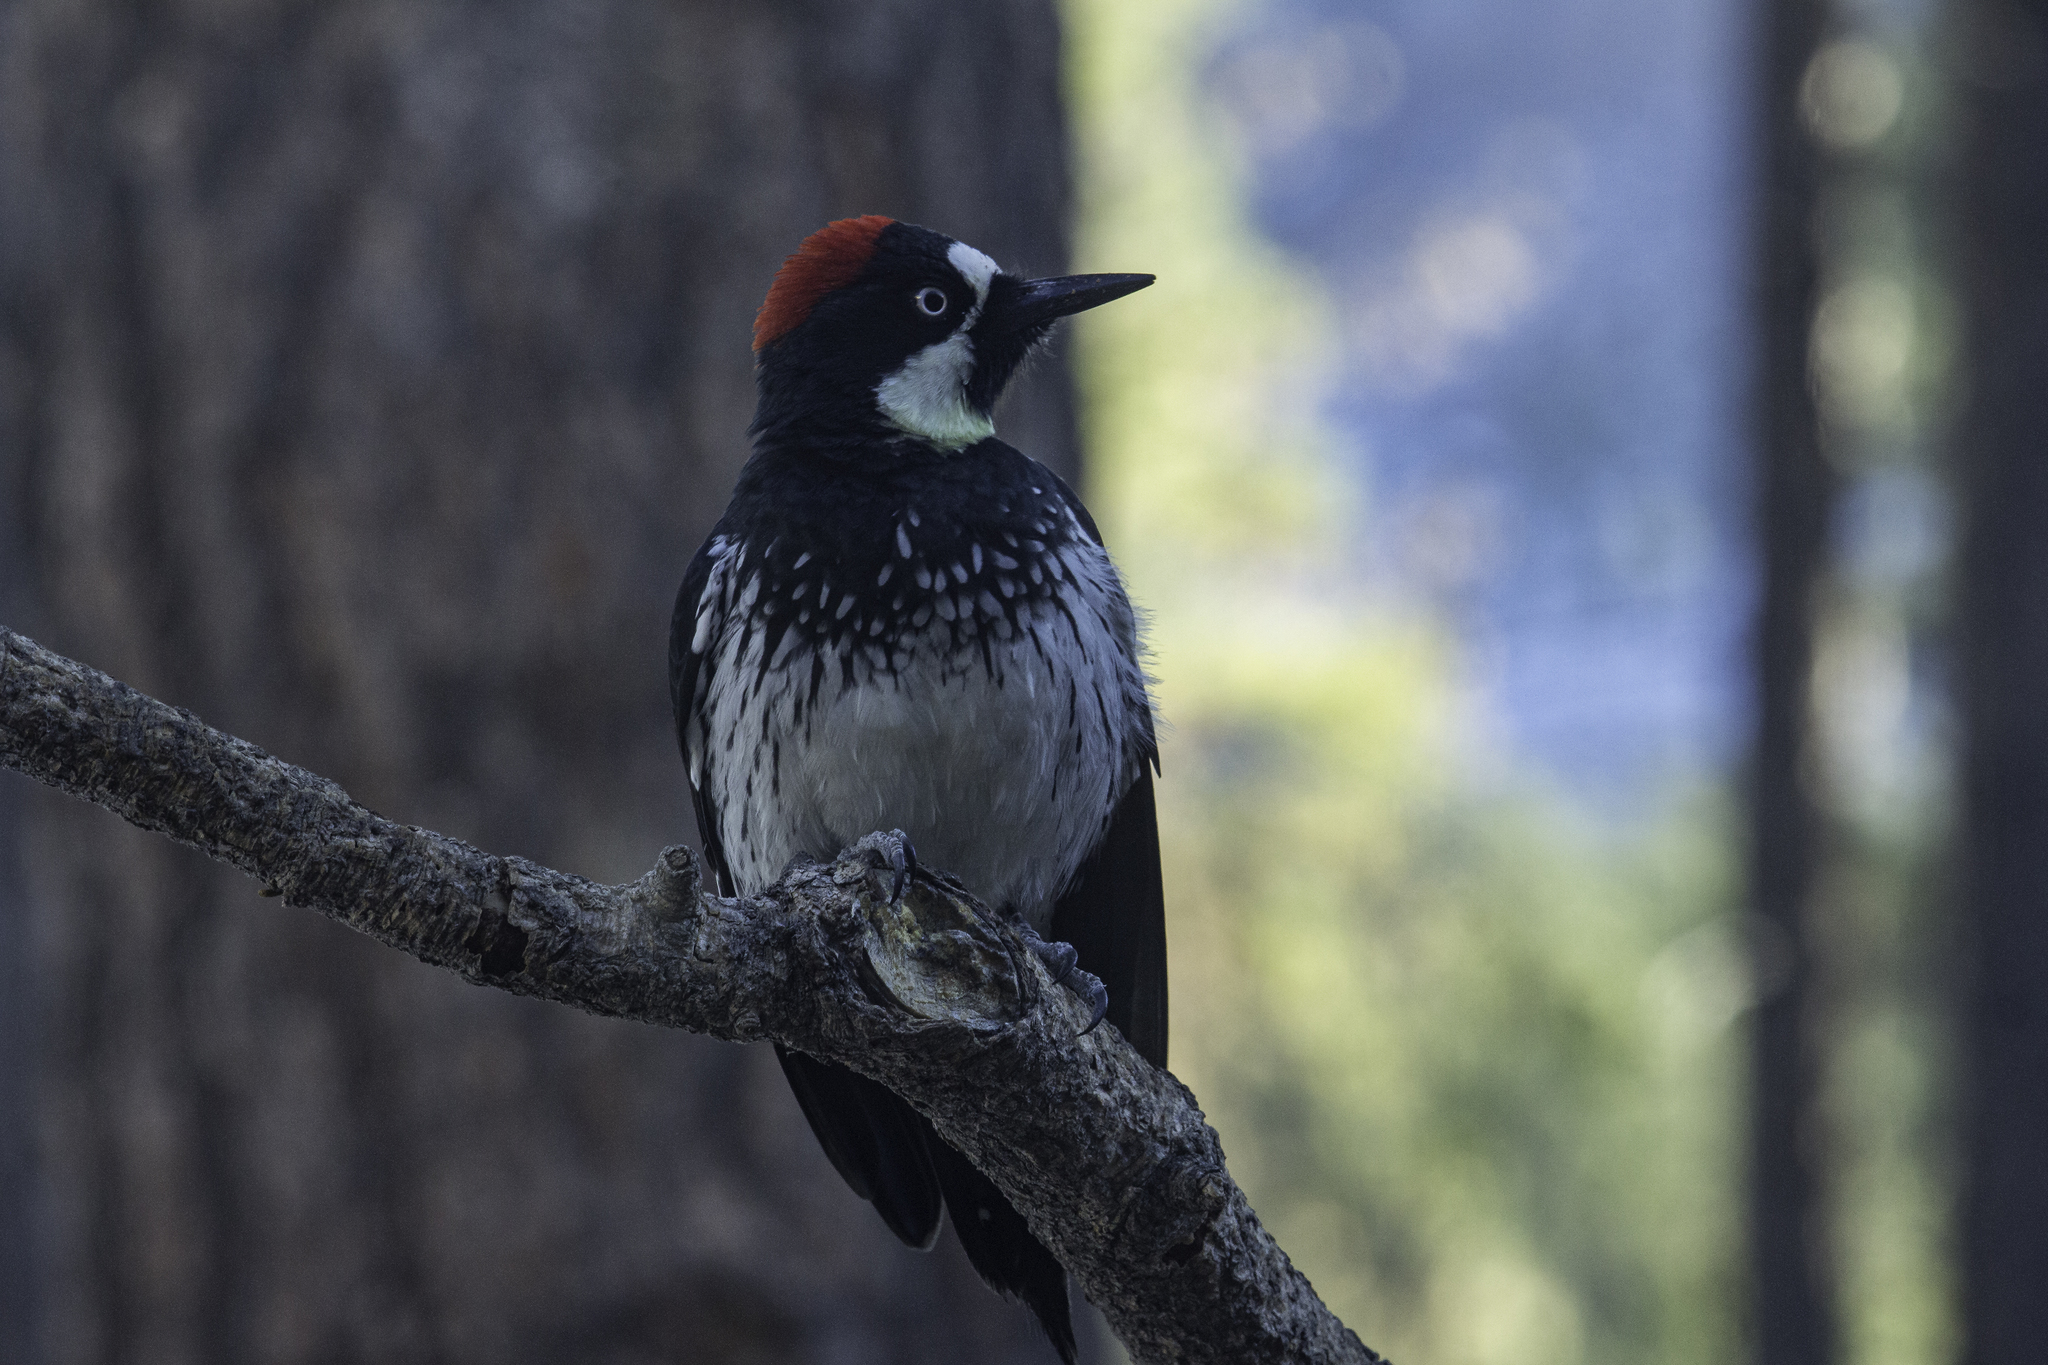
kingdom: Animalia
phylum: Chordata
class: Aves
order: Piciformes
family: Picidae
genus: Melanerpes
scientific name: Melanerpes formicivorus
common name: Acorn woodpecker
